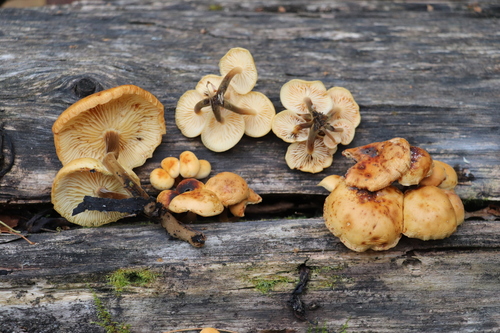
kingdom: Fungi
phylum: Basidiomycota
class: Agaricomycetes
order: Agaricales
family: Physalacriaceae
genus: Flammulina
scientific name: Flammulina velutipes
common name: Velvet shank
